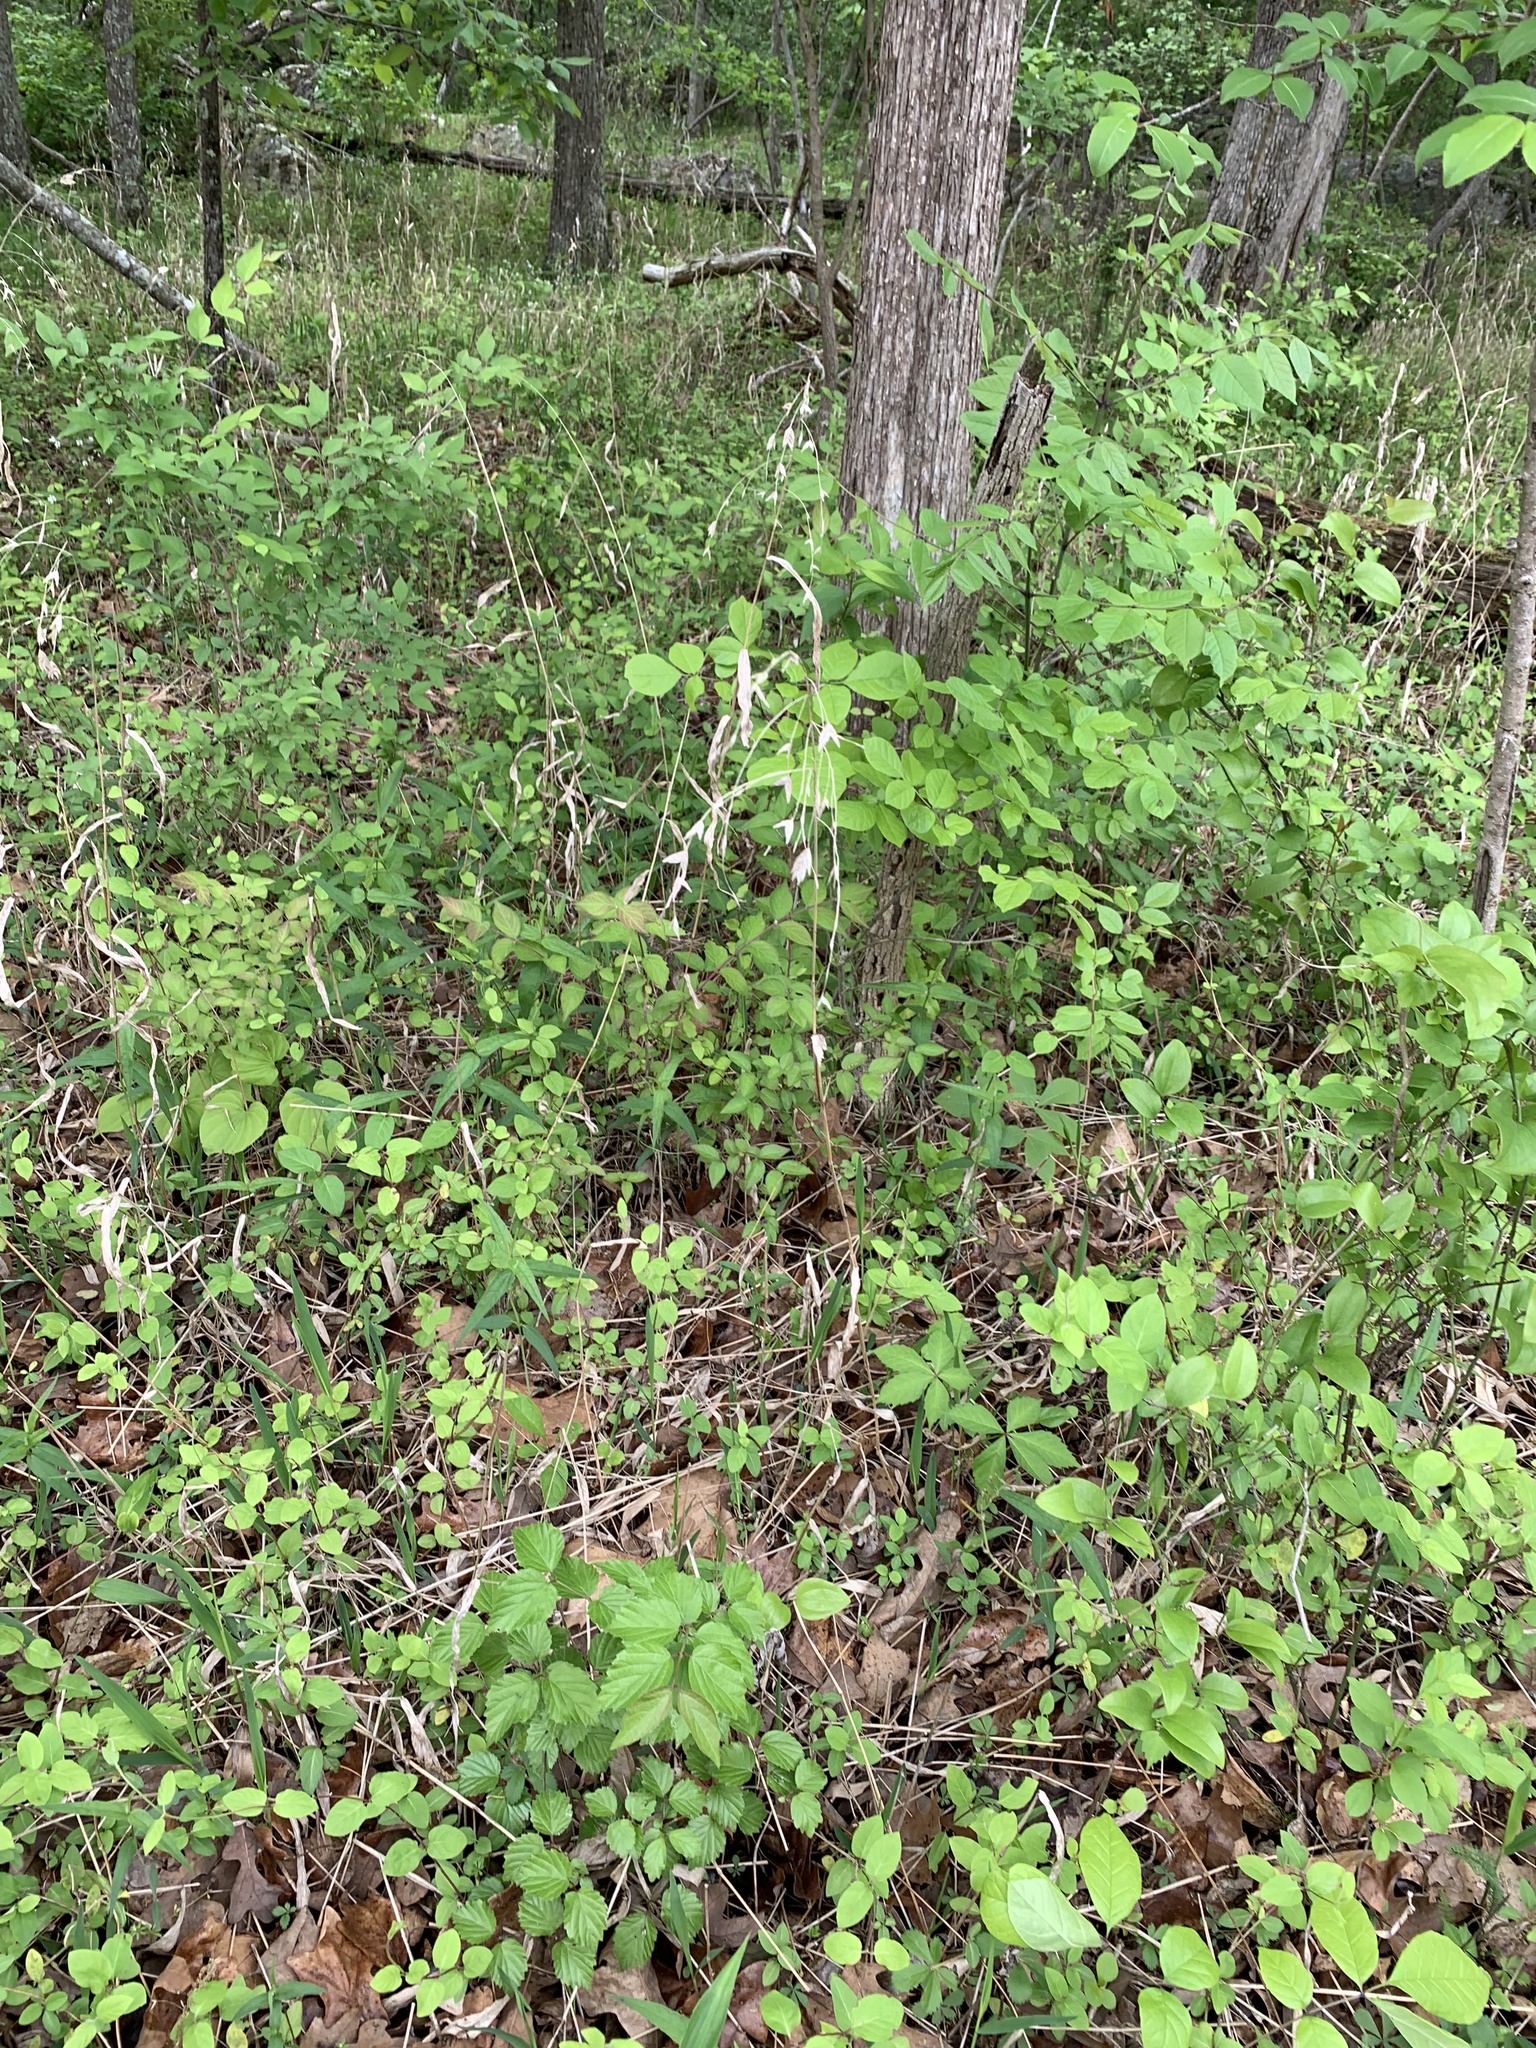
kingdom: Plantae
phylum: Tracheophyta
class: Liliopsida
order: Poales
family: Poaceae
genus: Chasmanthium
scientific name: Chasmanthium latifolium
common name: Broad-leaved chasmanthium
